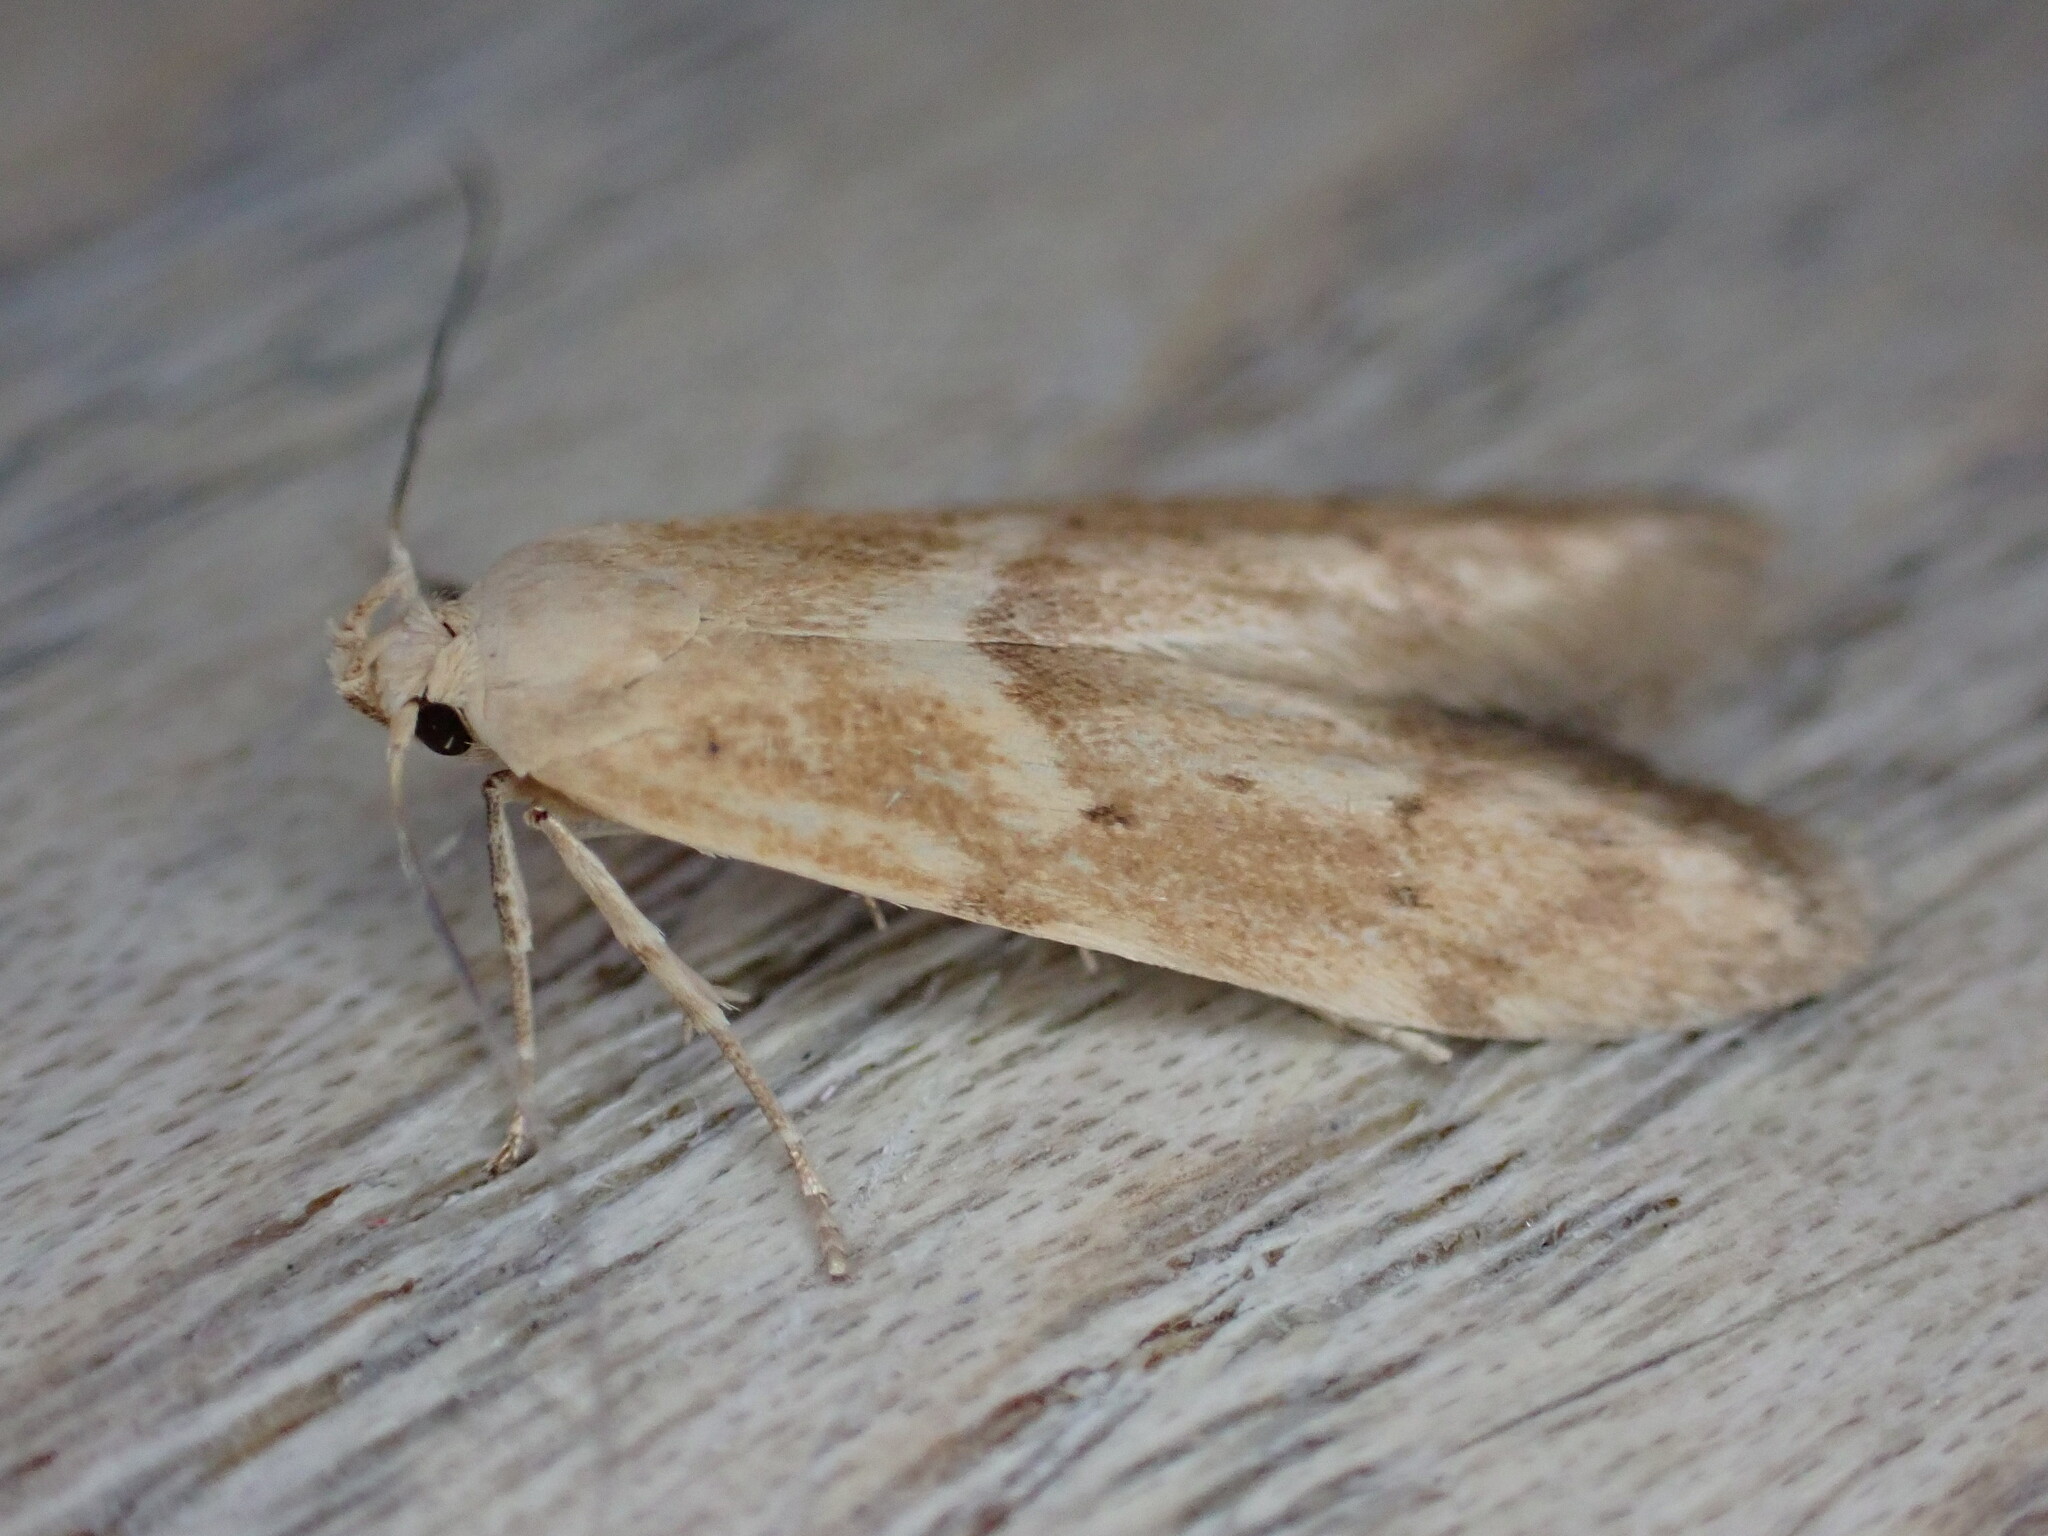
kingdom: Animalia
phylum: Arthropoda
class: Insecta
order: Lepidoptera
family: Blastobasidae
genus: Blastobasis
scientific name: Blastobasis lacticolella
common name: London dowd
